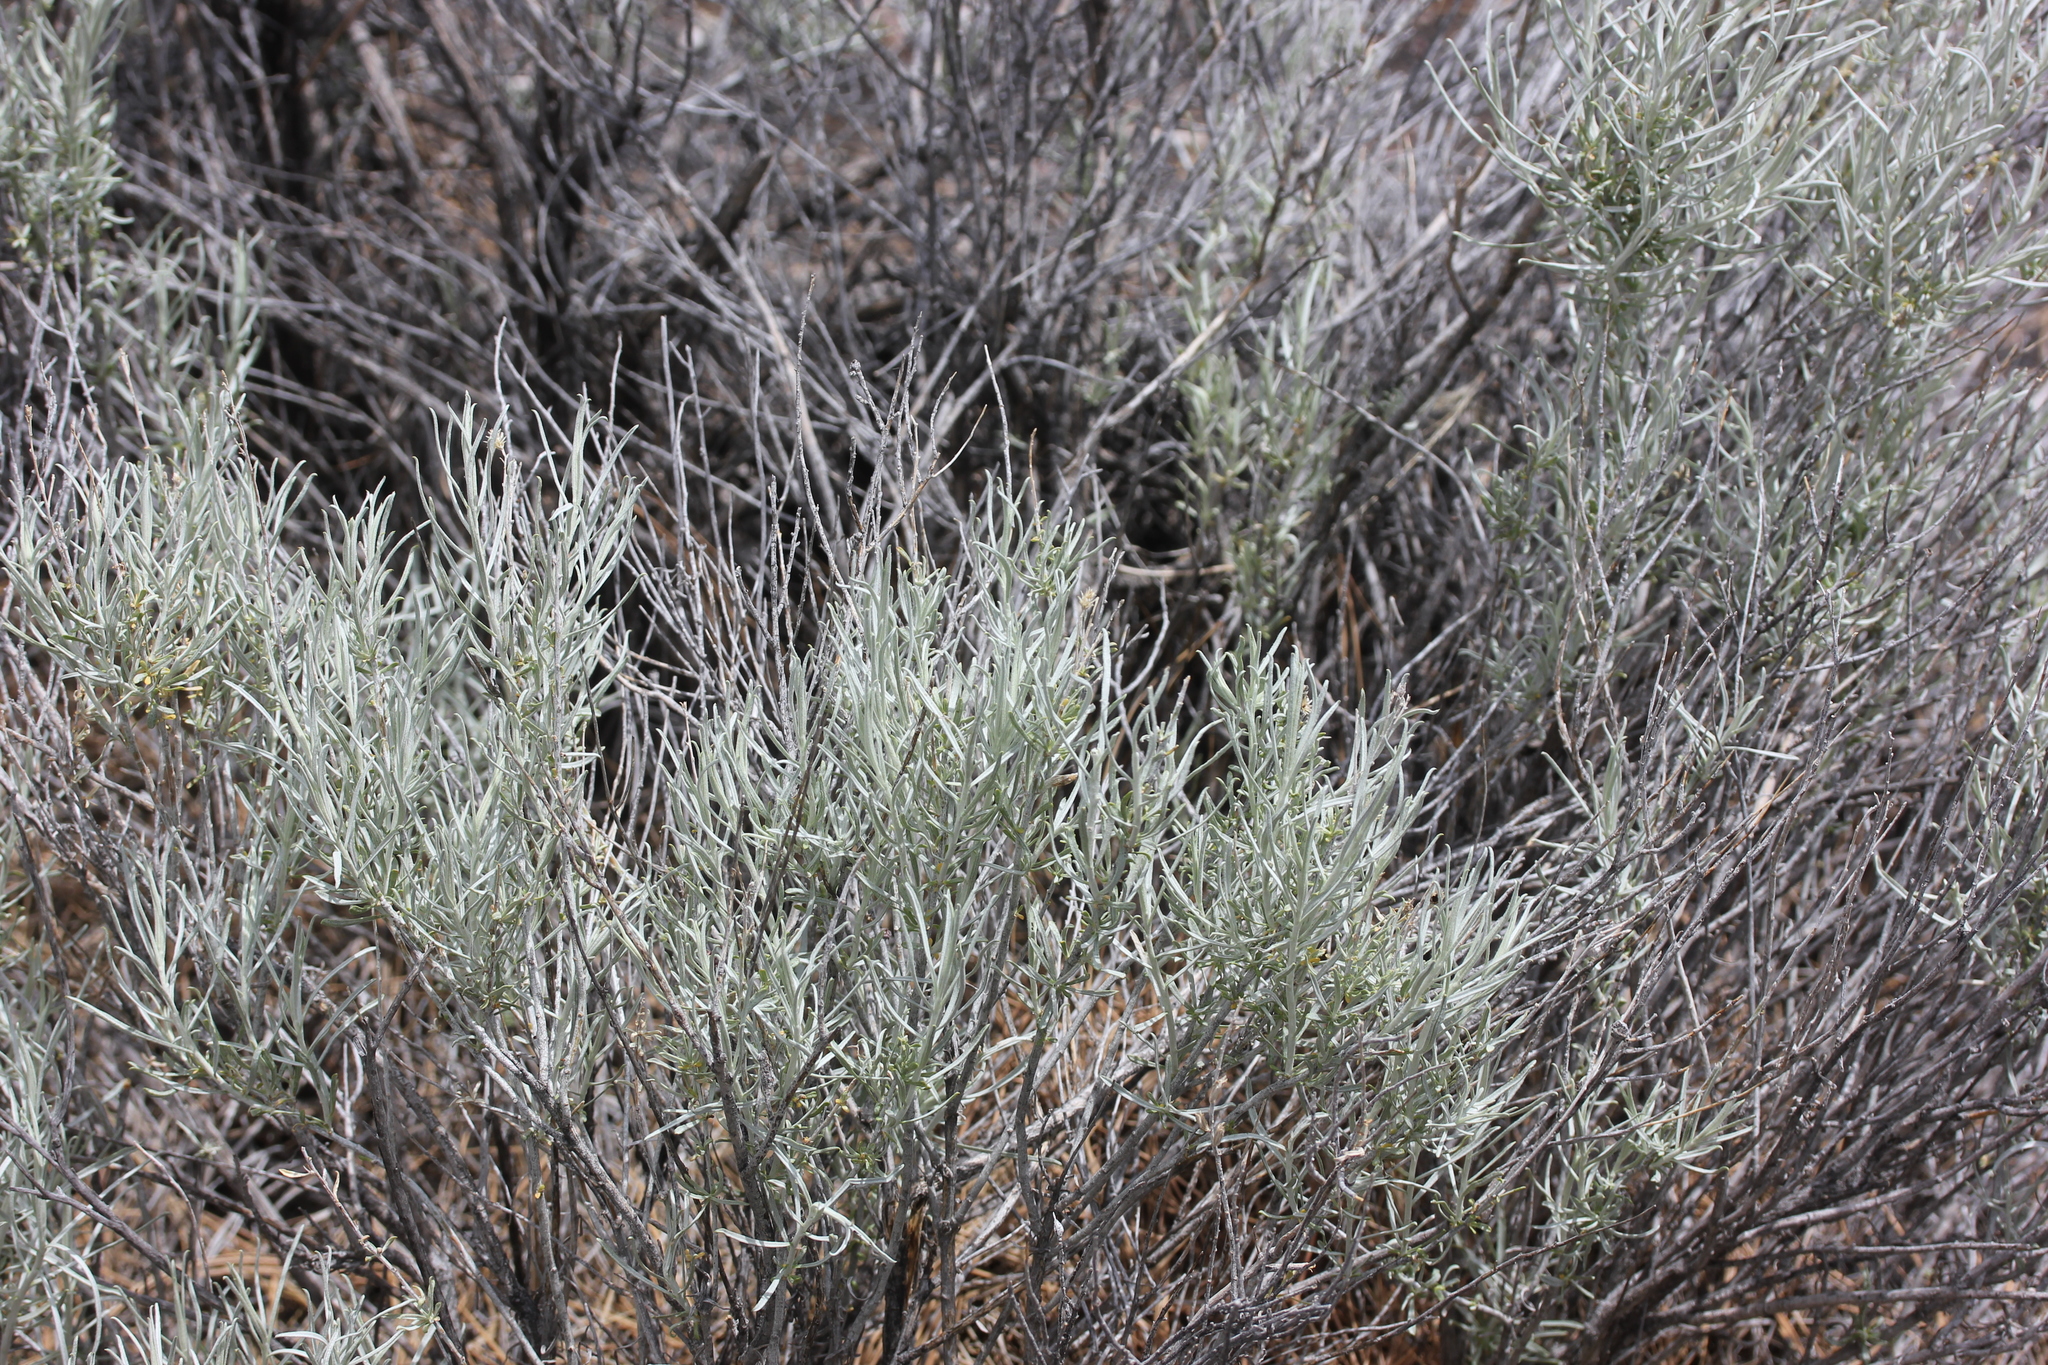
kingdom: Plantae
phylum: Tracheophyta
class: Magnoliopsida
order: Asterales
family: Asteraceae
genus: Ericameria
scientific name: Ericameria nauseosa
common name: Rubber rabbitbrush
